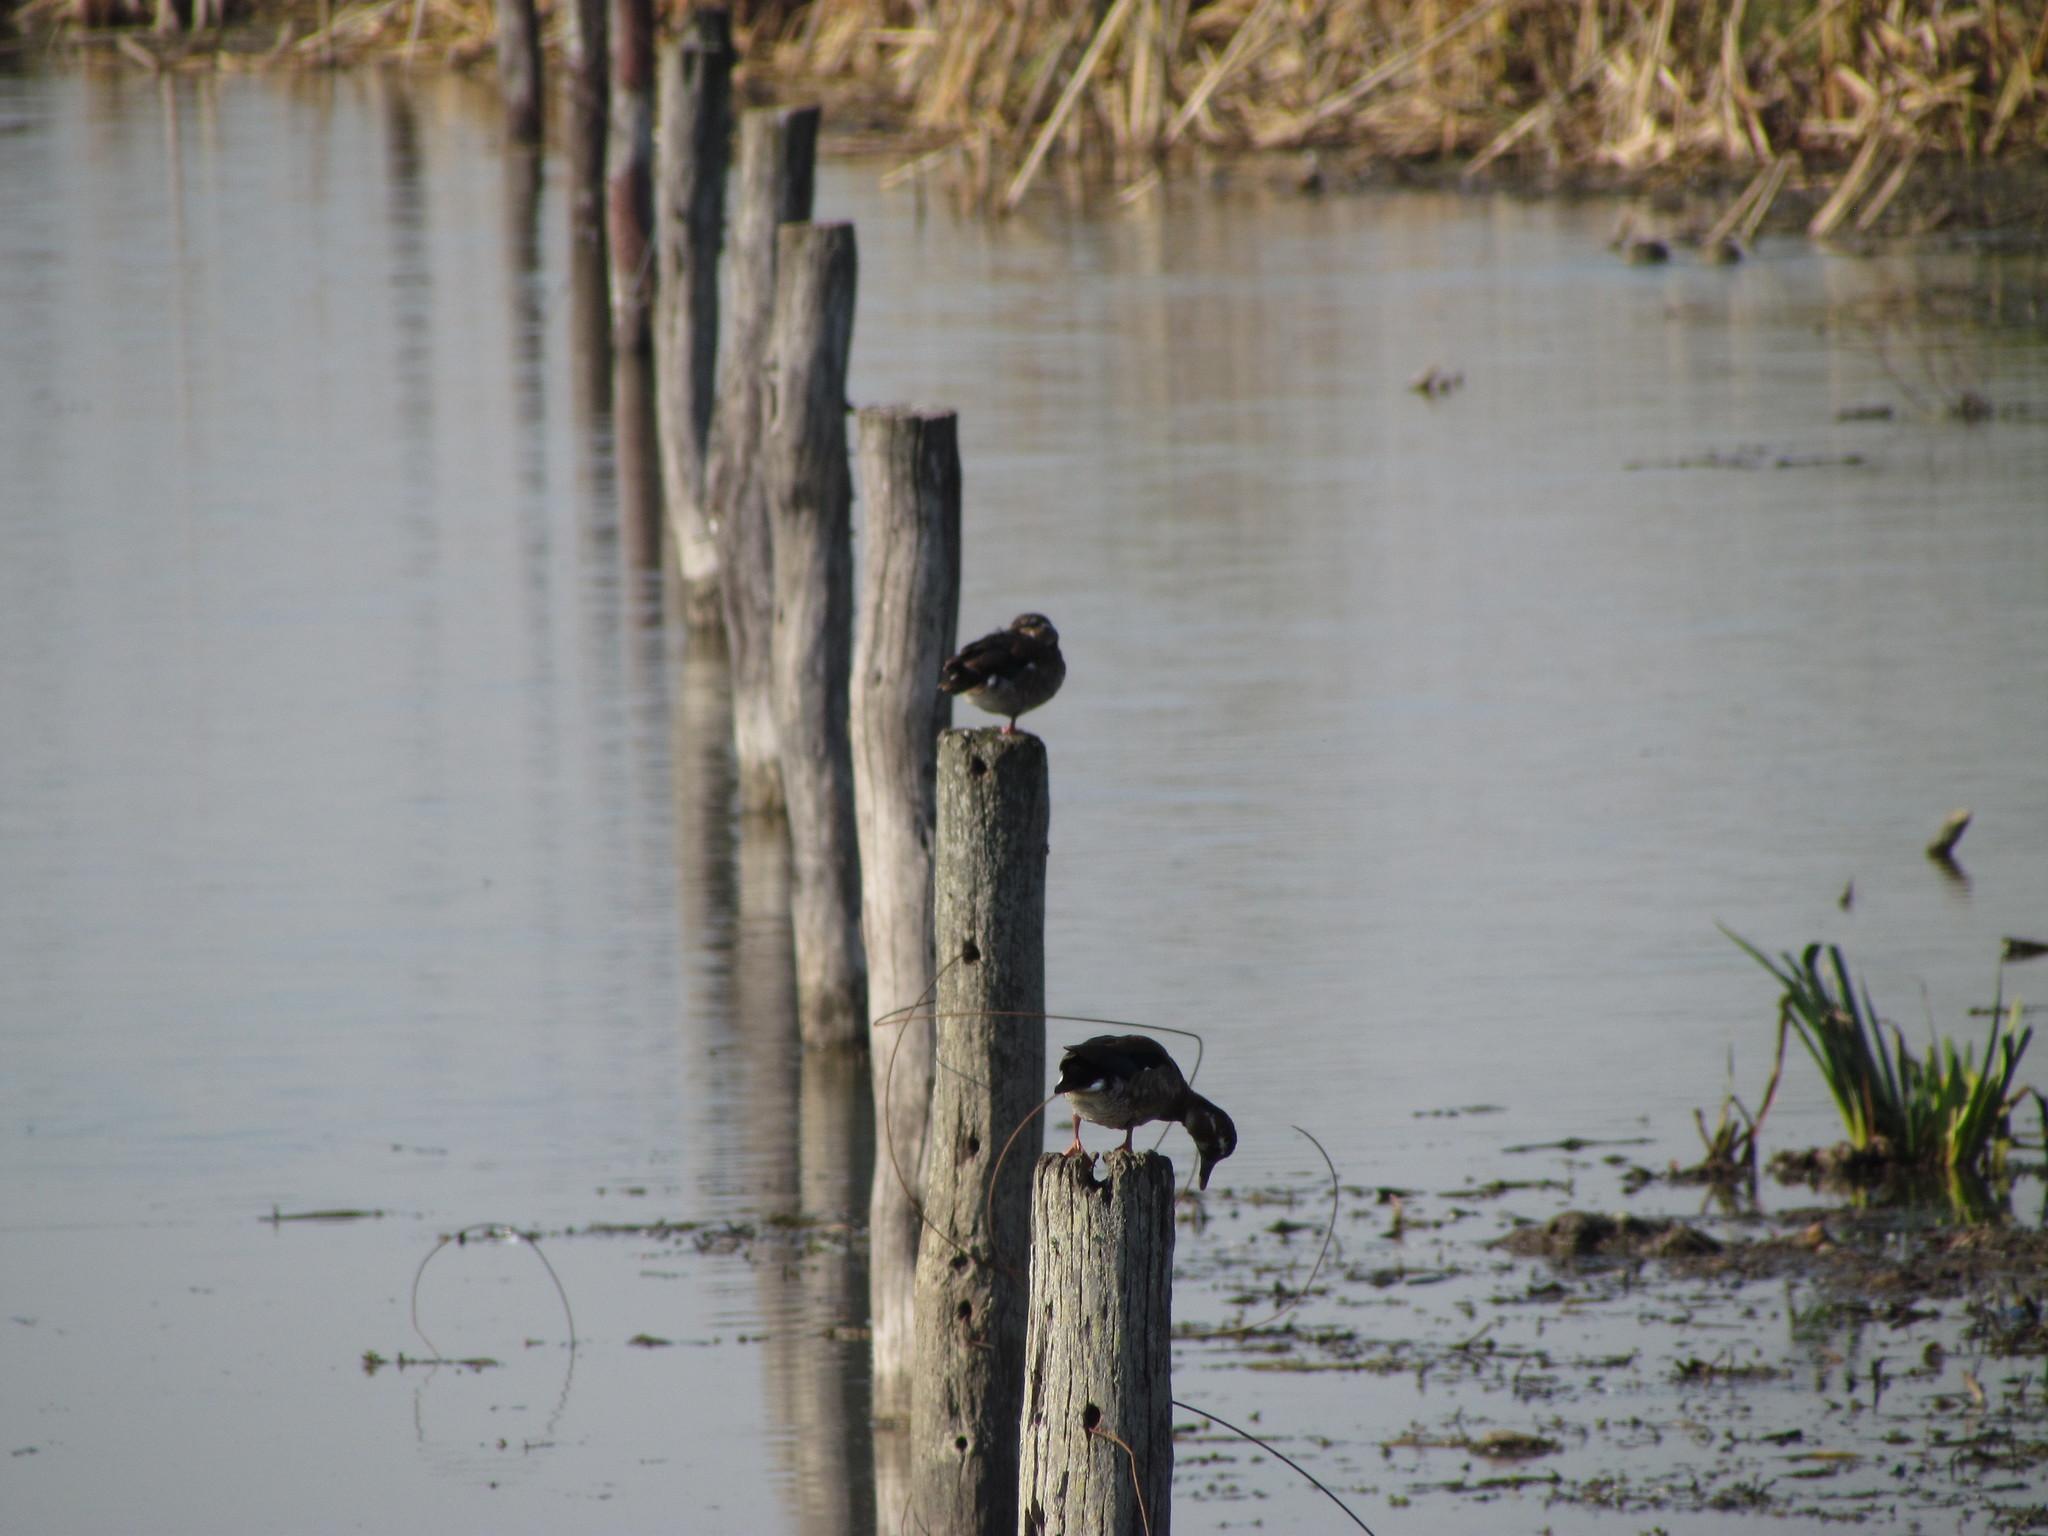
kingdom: Animalia
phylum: Chordata
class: Aves
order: Anseriformes
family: Anatidae
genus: Callonetta
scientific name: Callonetta leucophrys
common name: Ringed teal
